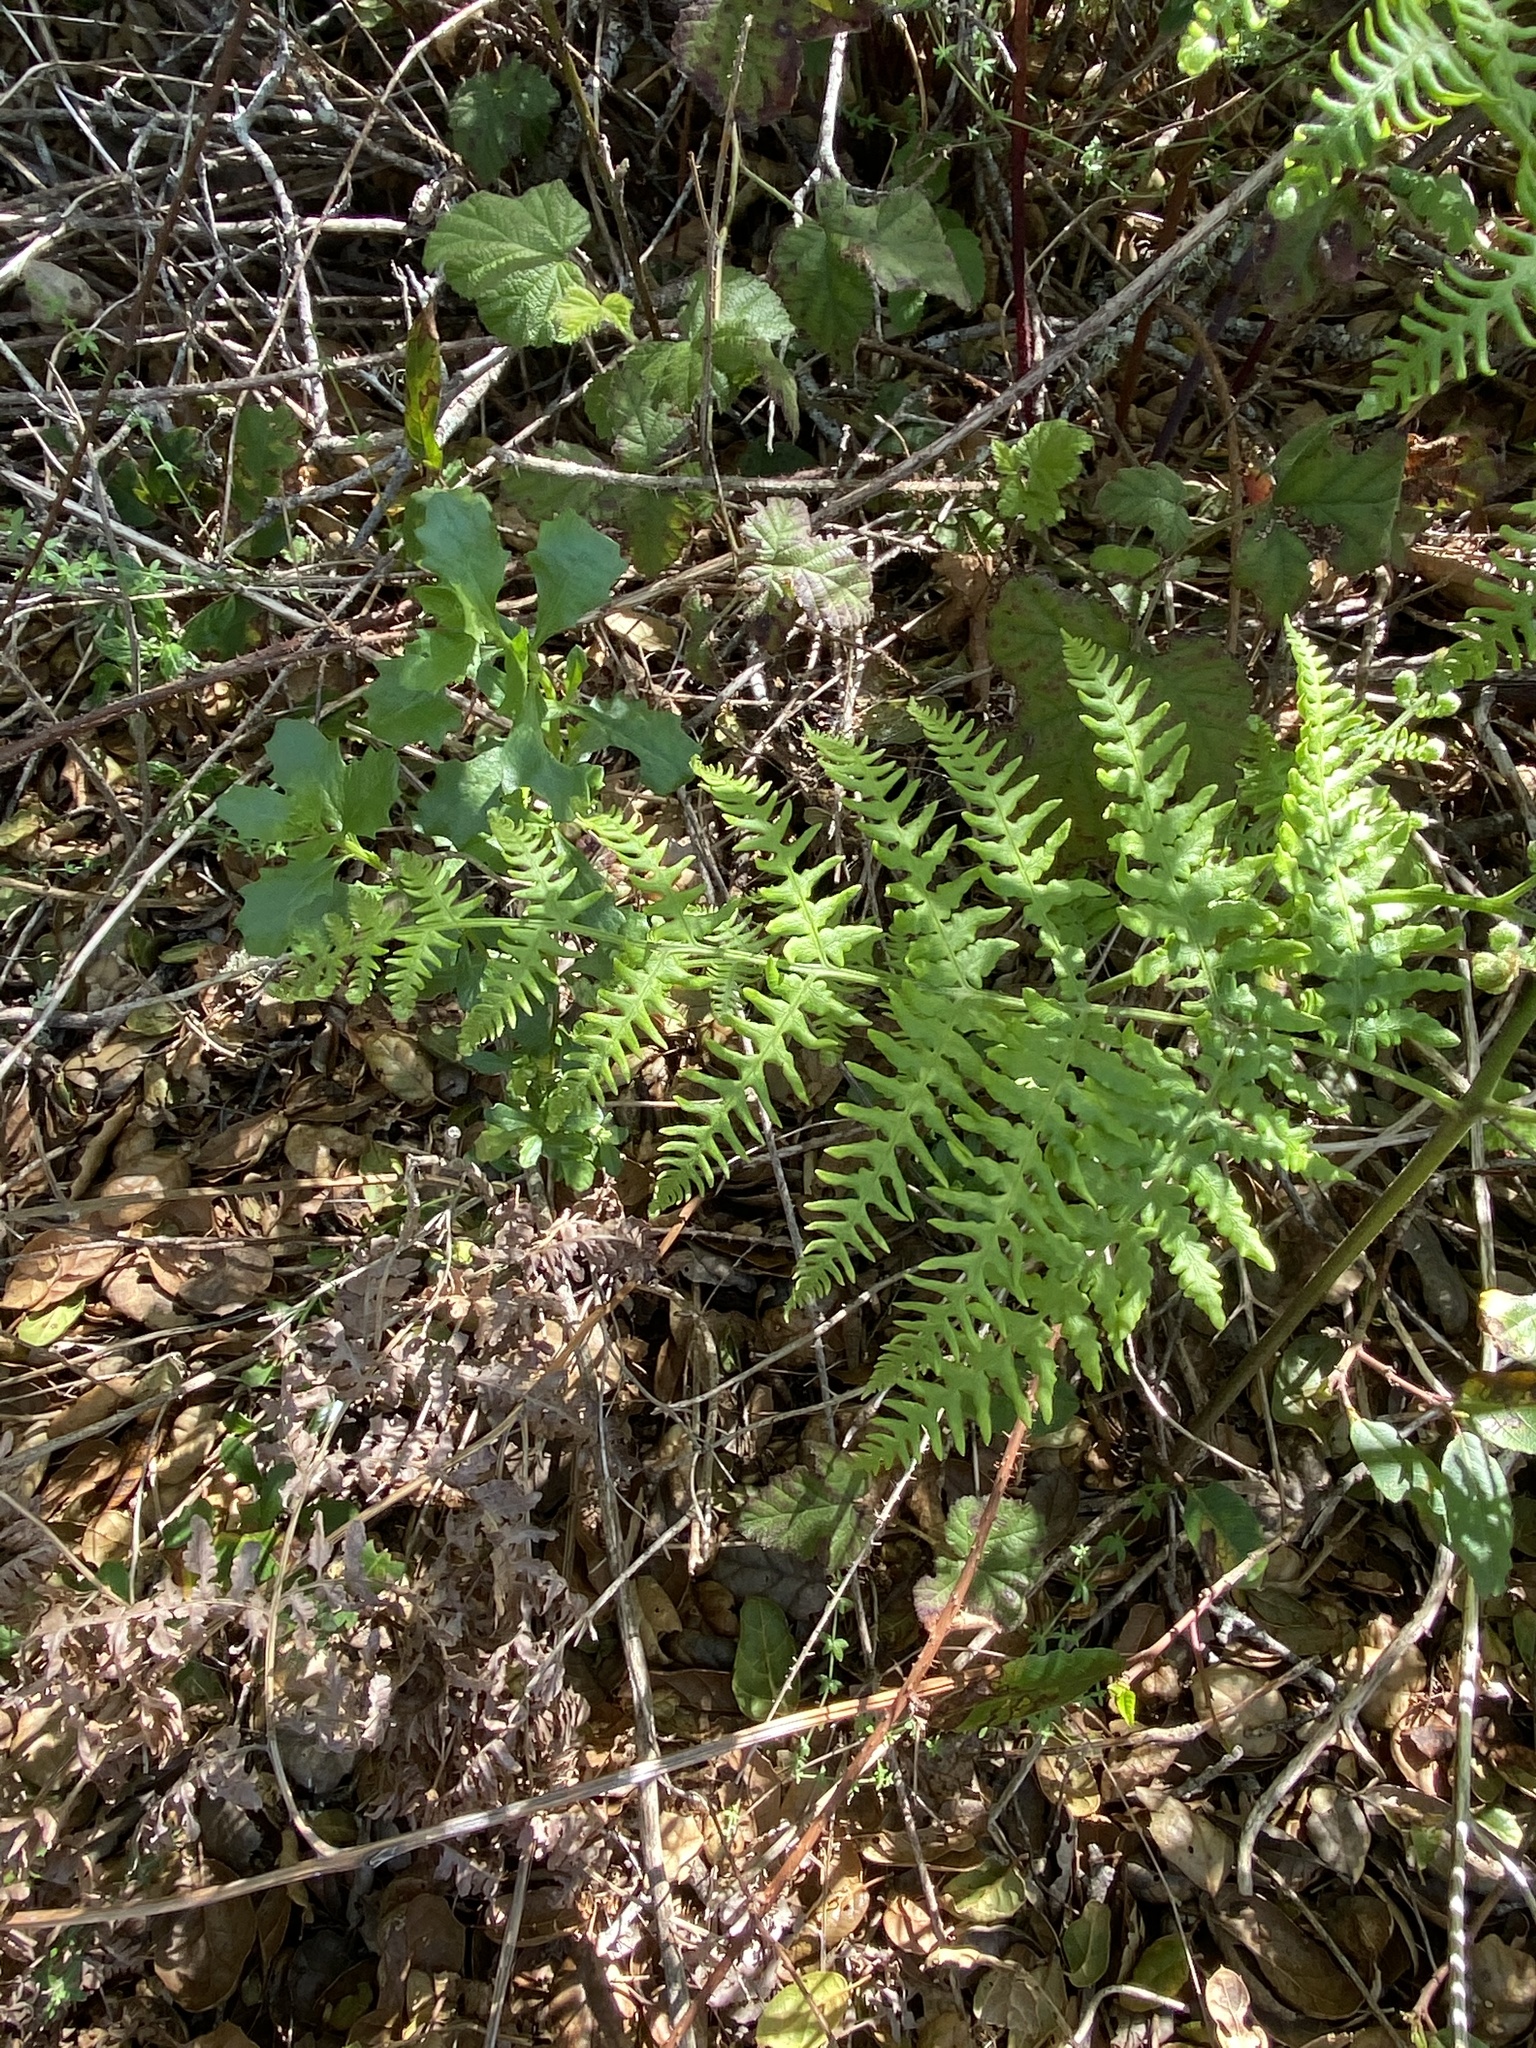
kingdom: Plantae
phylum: Tracheophyta
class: Polypodiopsida
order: Polypodiales
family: Dennstaedtiaceae
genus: Pteridium
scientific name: Pteridium aquilinum
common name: Bracken
